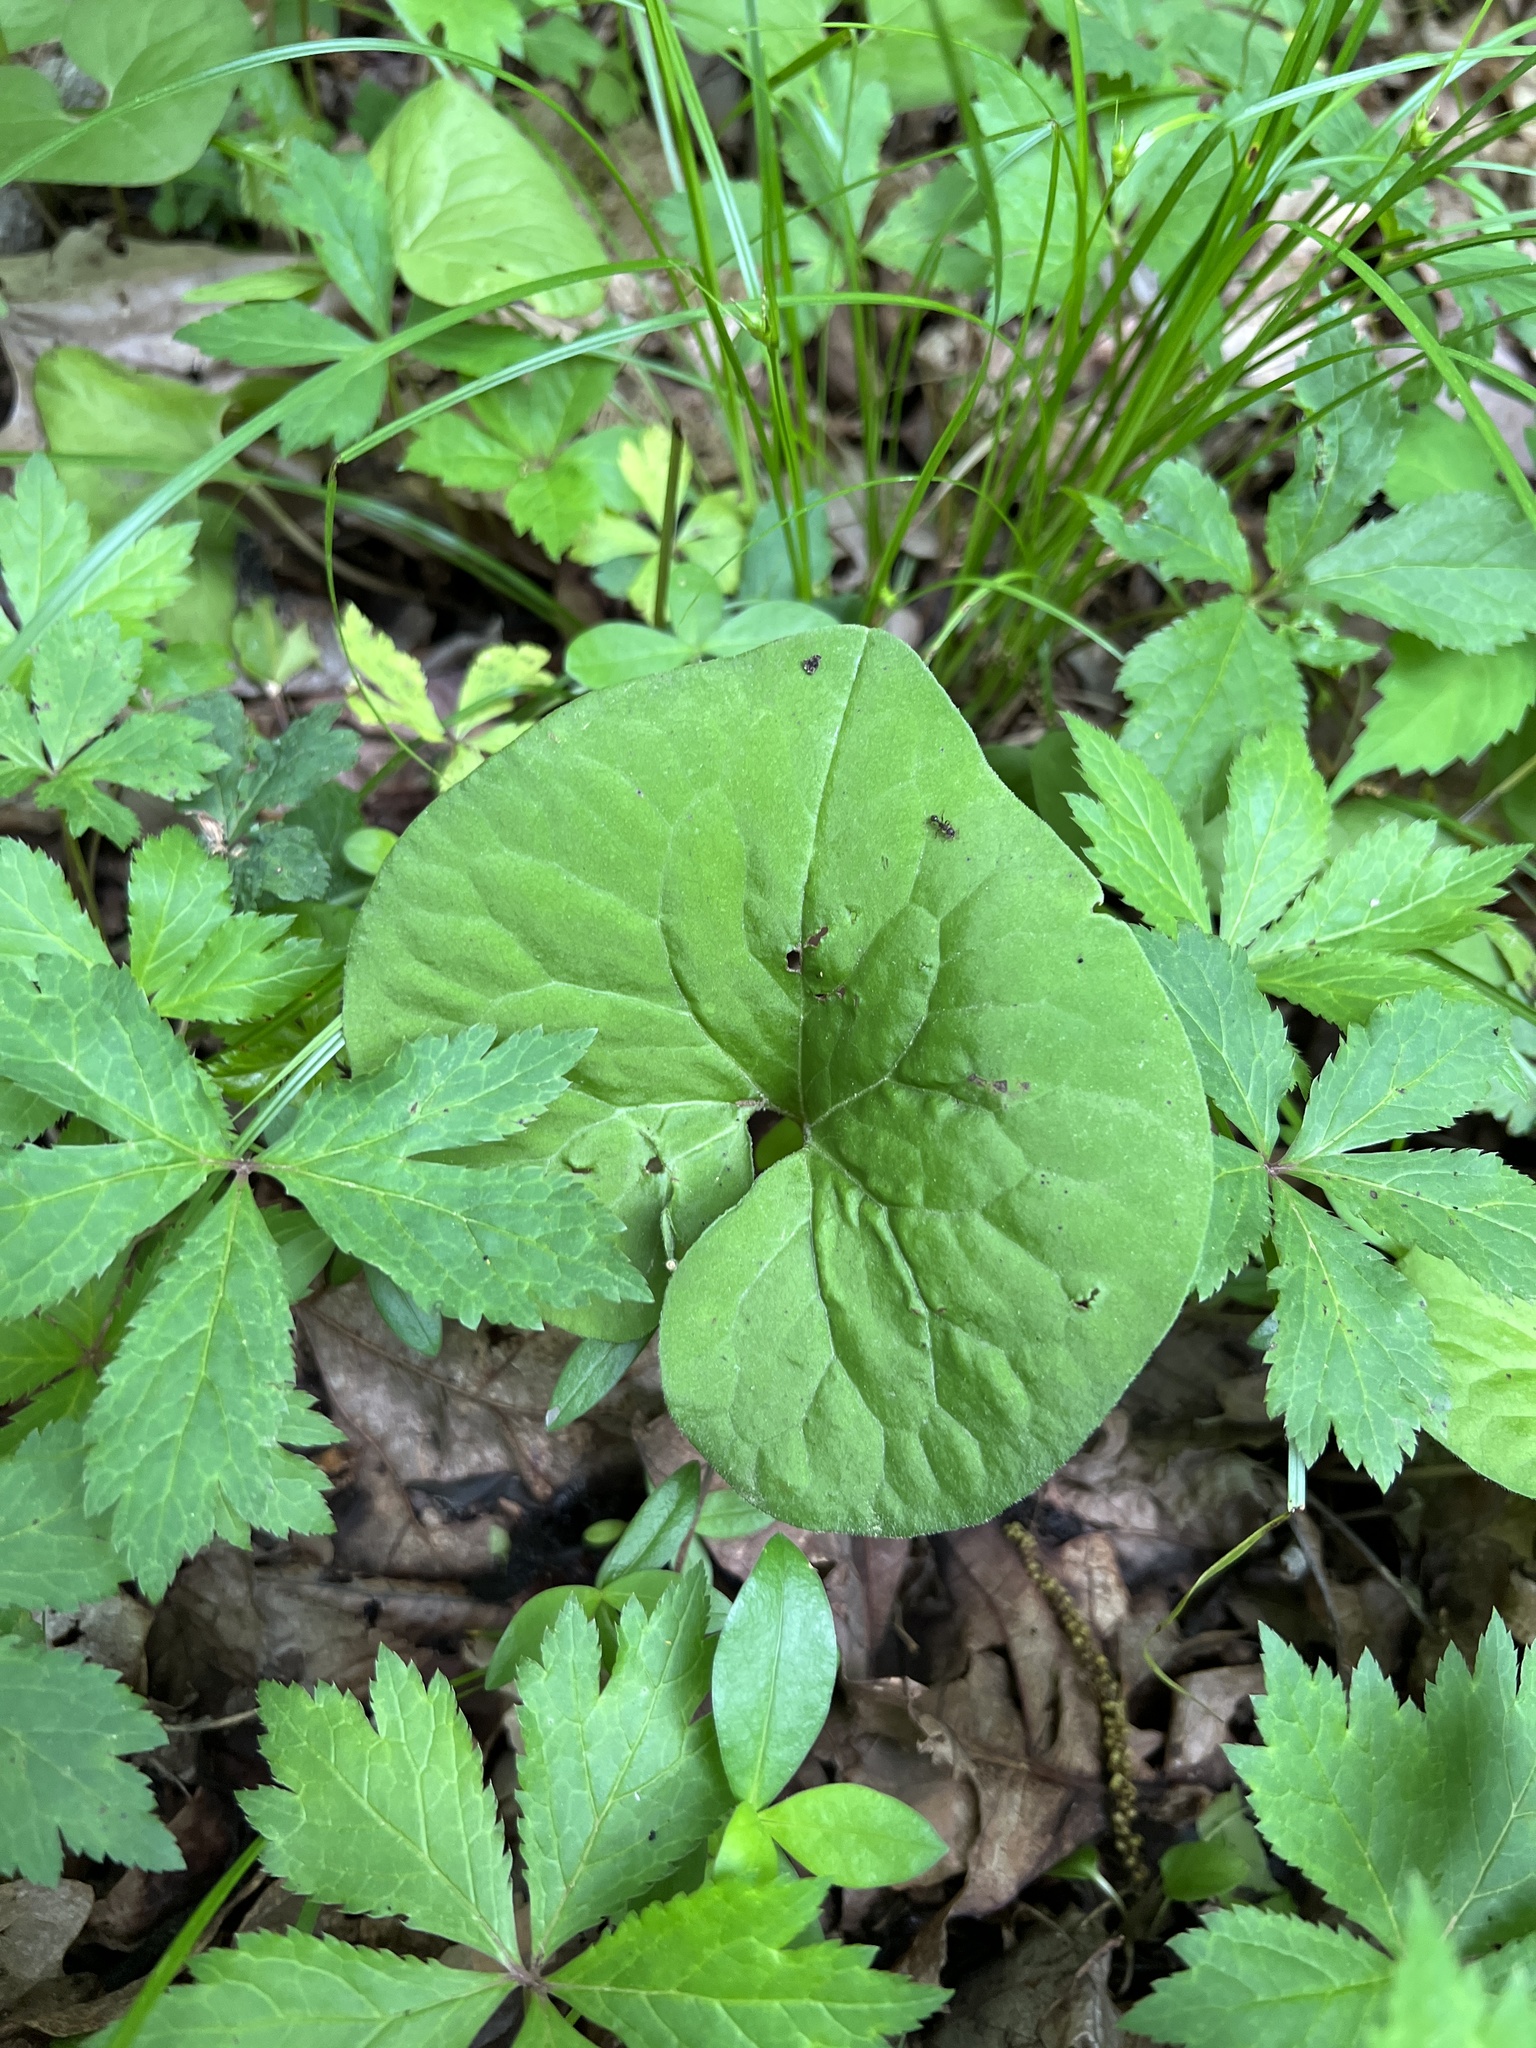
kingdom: Plantae
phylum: Tracheophyta
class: Magnoliopsida
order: Piperales
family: Aristolochiaceae
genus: Asarum
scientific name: Asarum canadense
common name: Wild ginger
